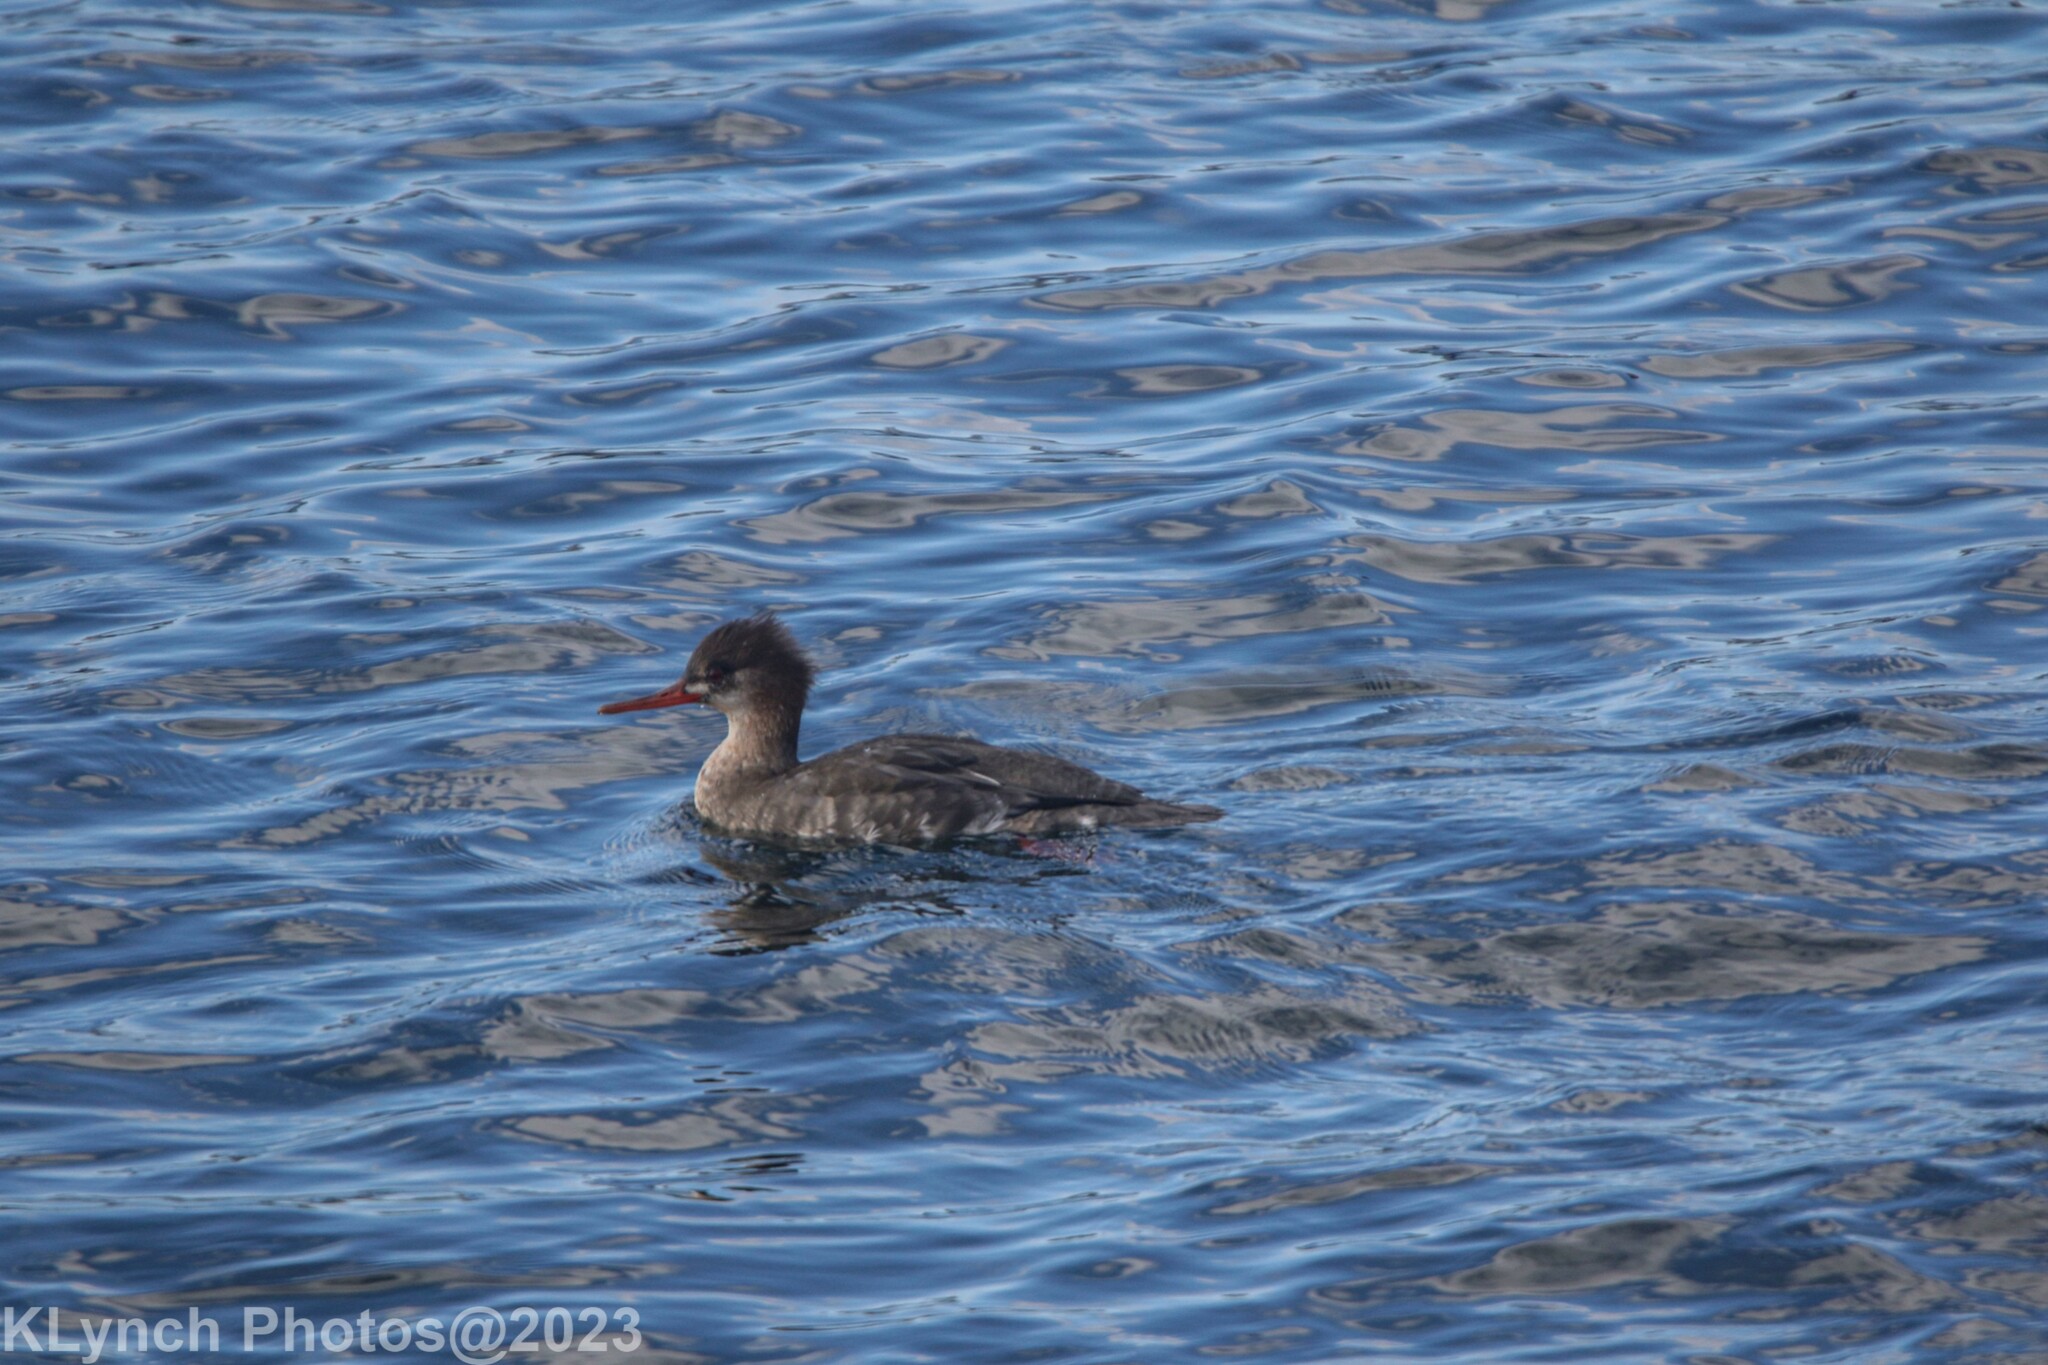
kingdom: Animalia
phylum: Chordata
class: Aves
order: Anseriformes
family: Anatidae
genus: Mergus
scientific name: Mergus serrator
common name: Red-breasted merganser
